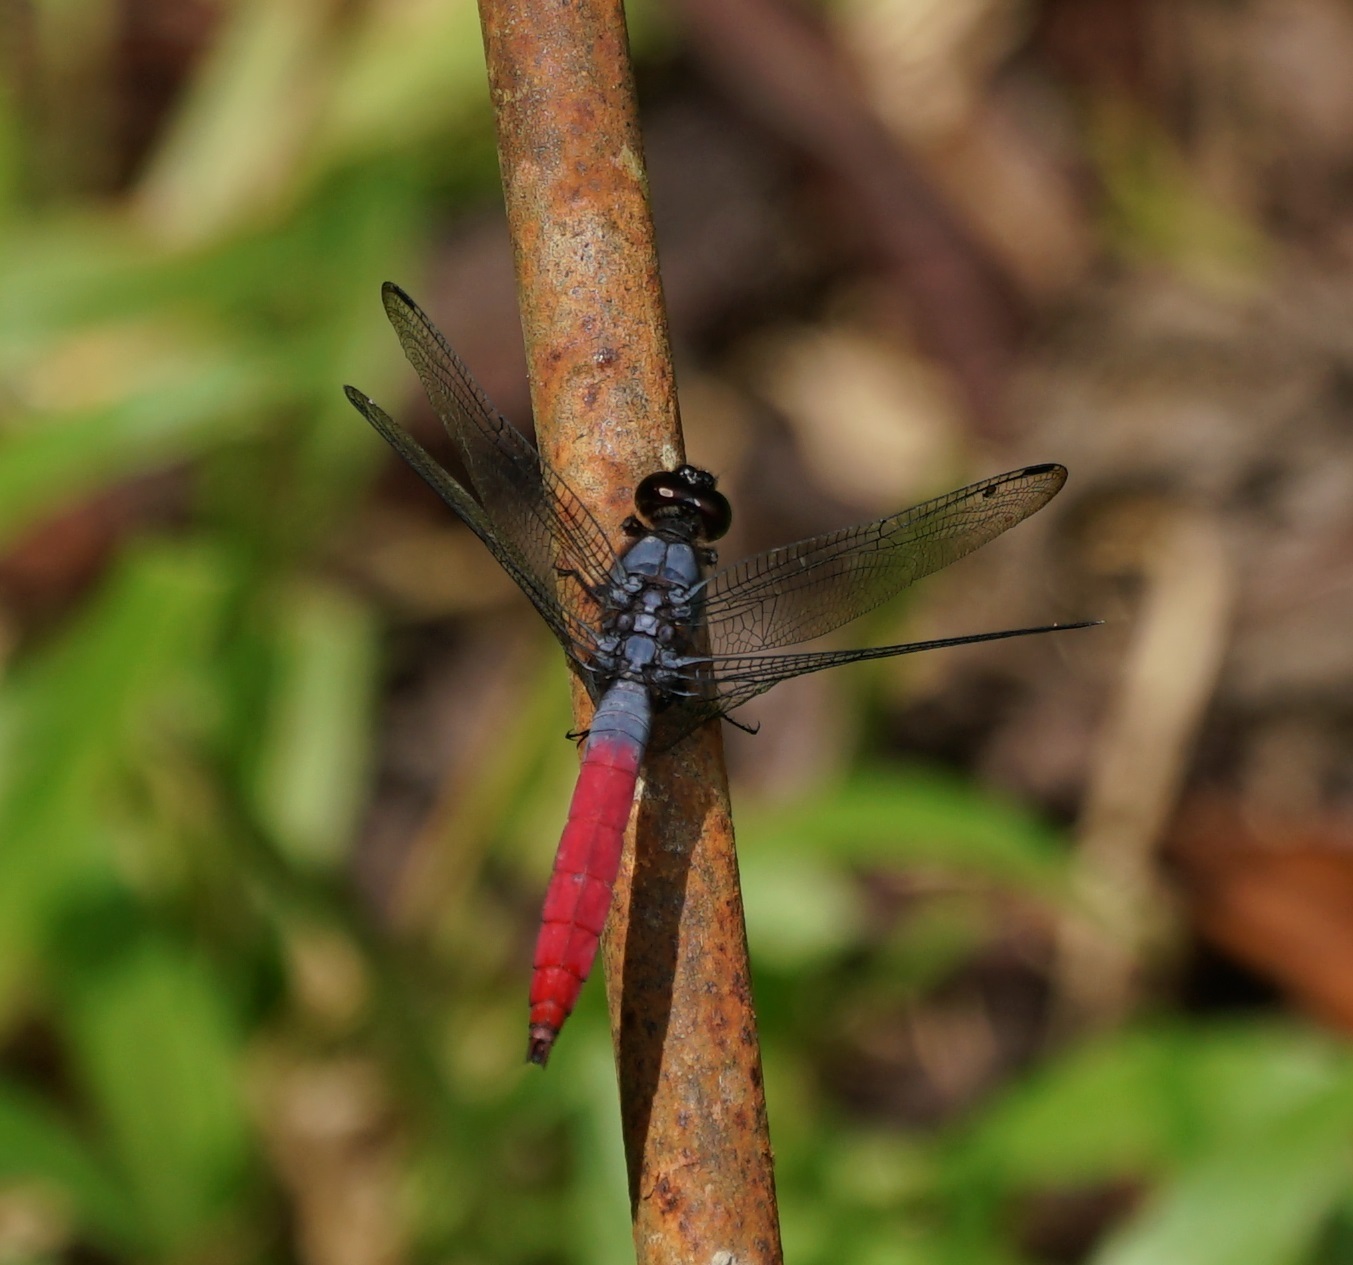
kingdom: Animalia
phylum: Arthropoda
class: Insecta
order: Odonata
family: Libellulidae
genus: Orthetrum
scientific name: Orthetrum schneideri
